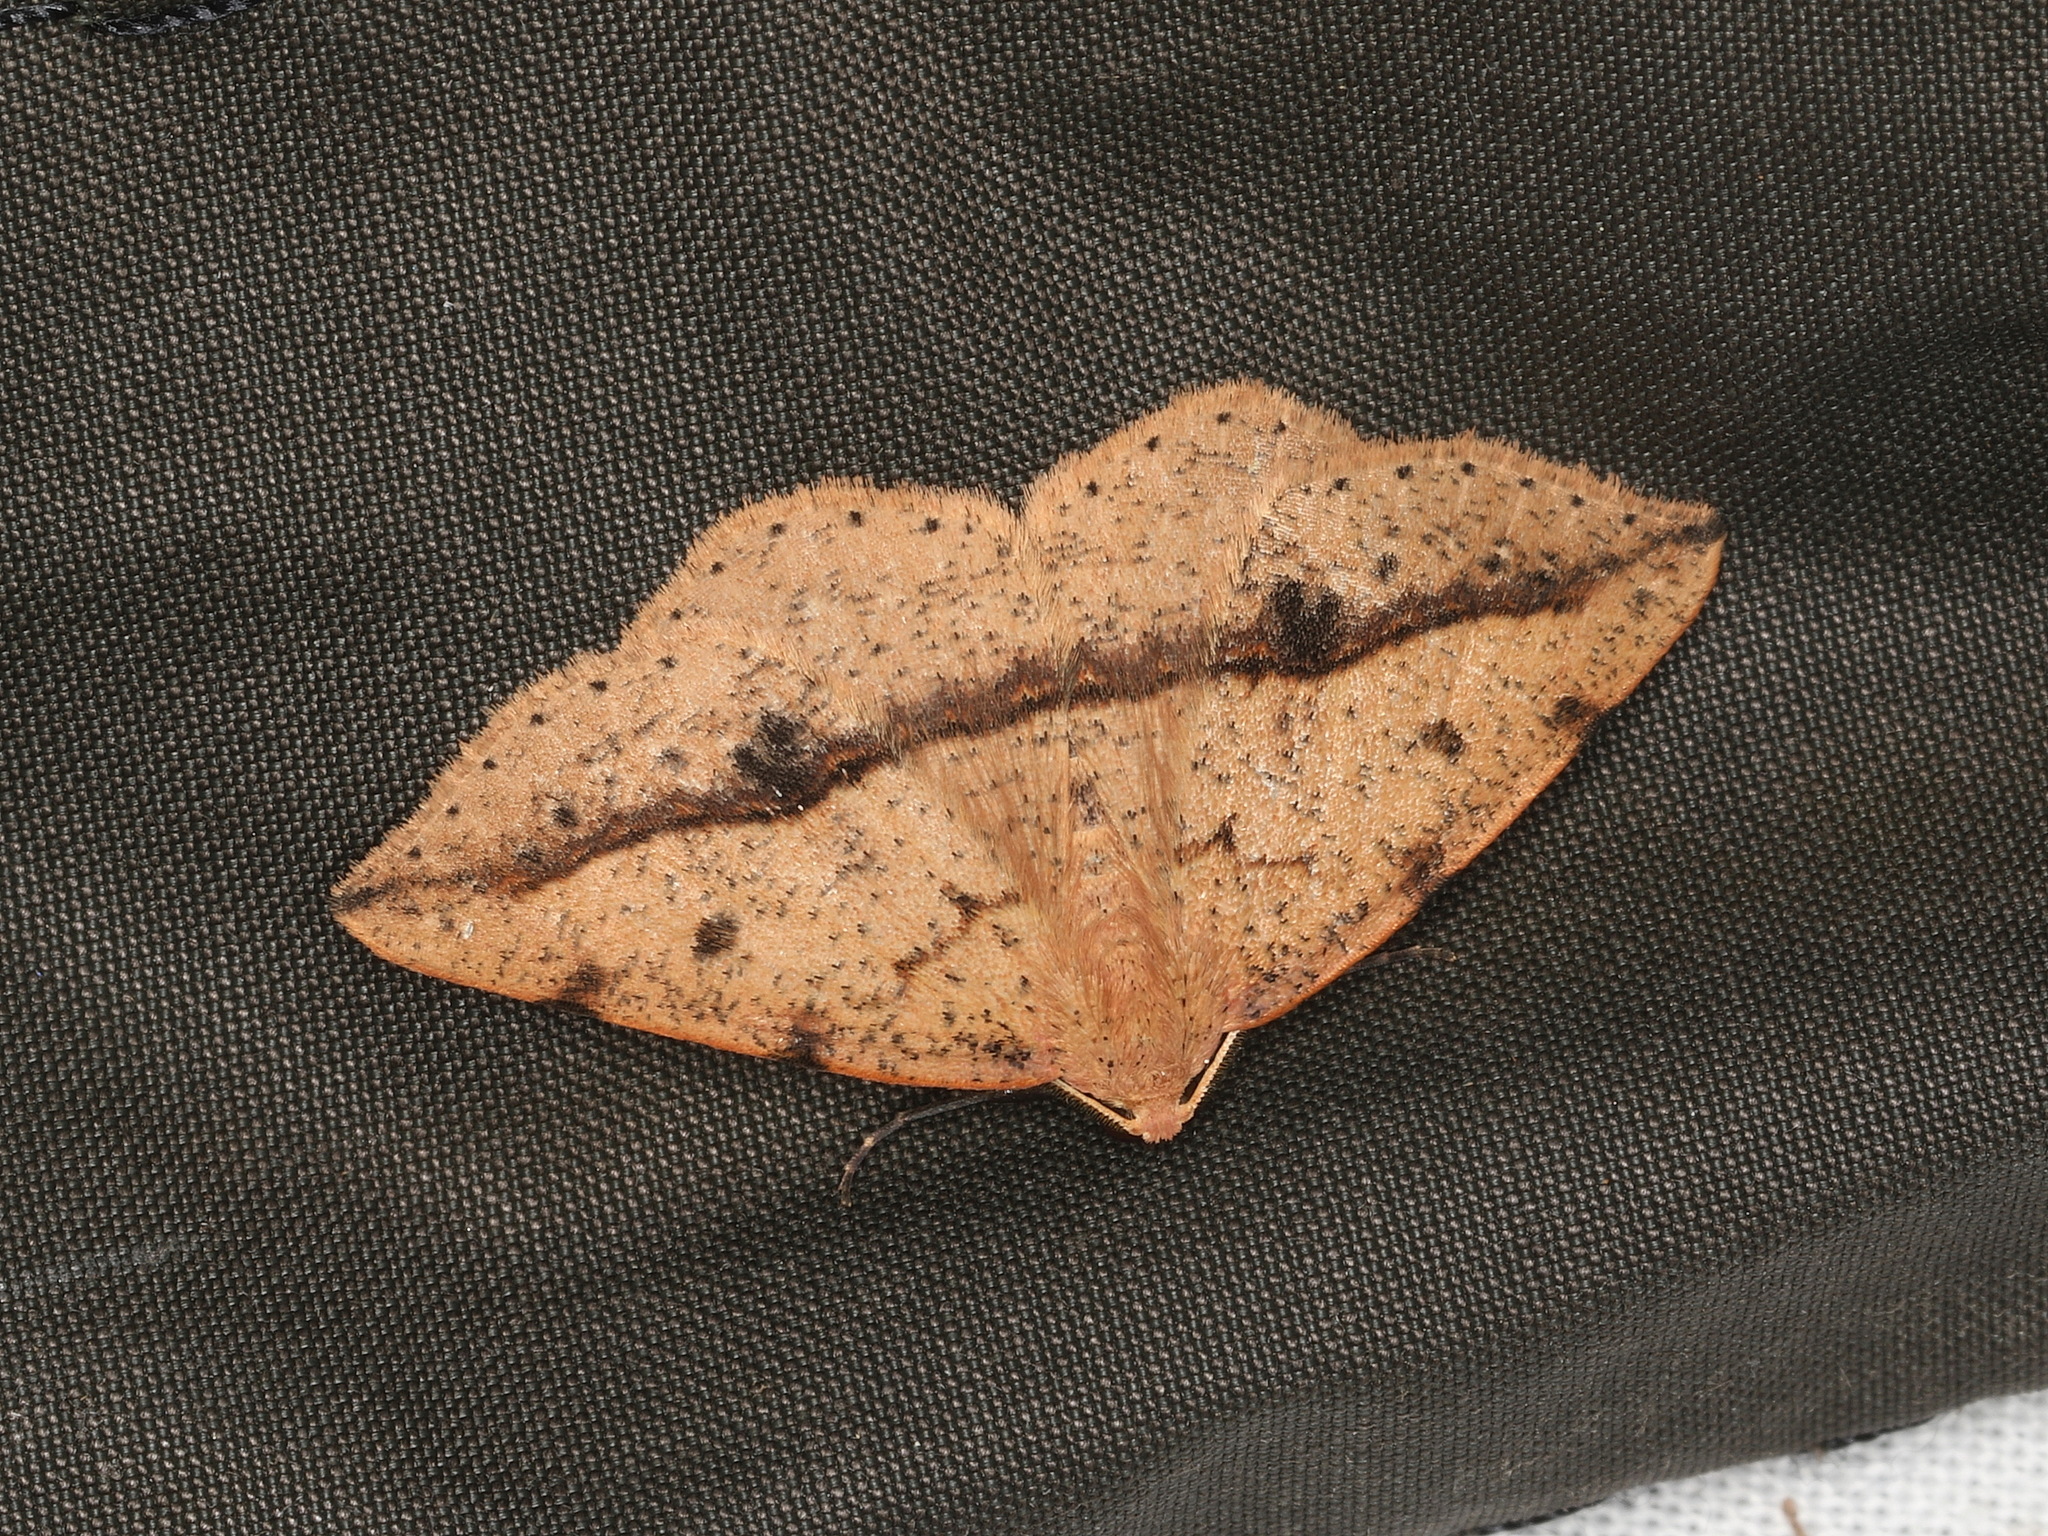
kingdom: Animalia
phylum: Arthropoda
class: Insecta
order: Lepidoptera
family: Geometridae
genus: Taxeotis
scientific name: Taxeotis epigaea
